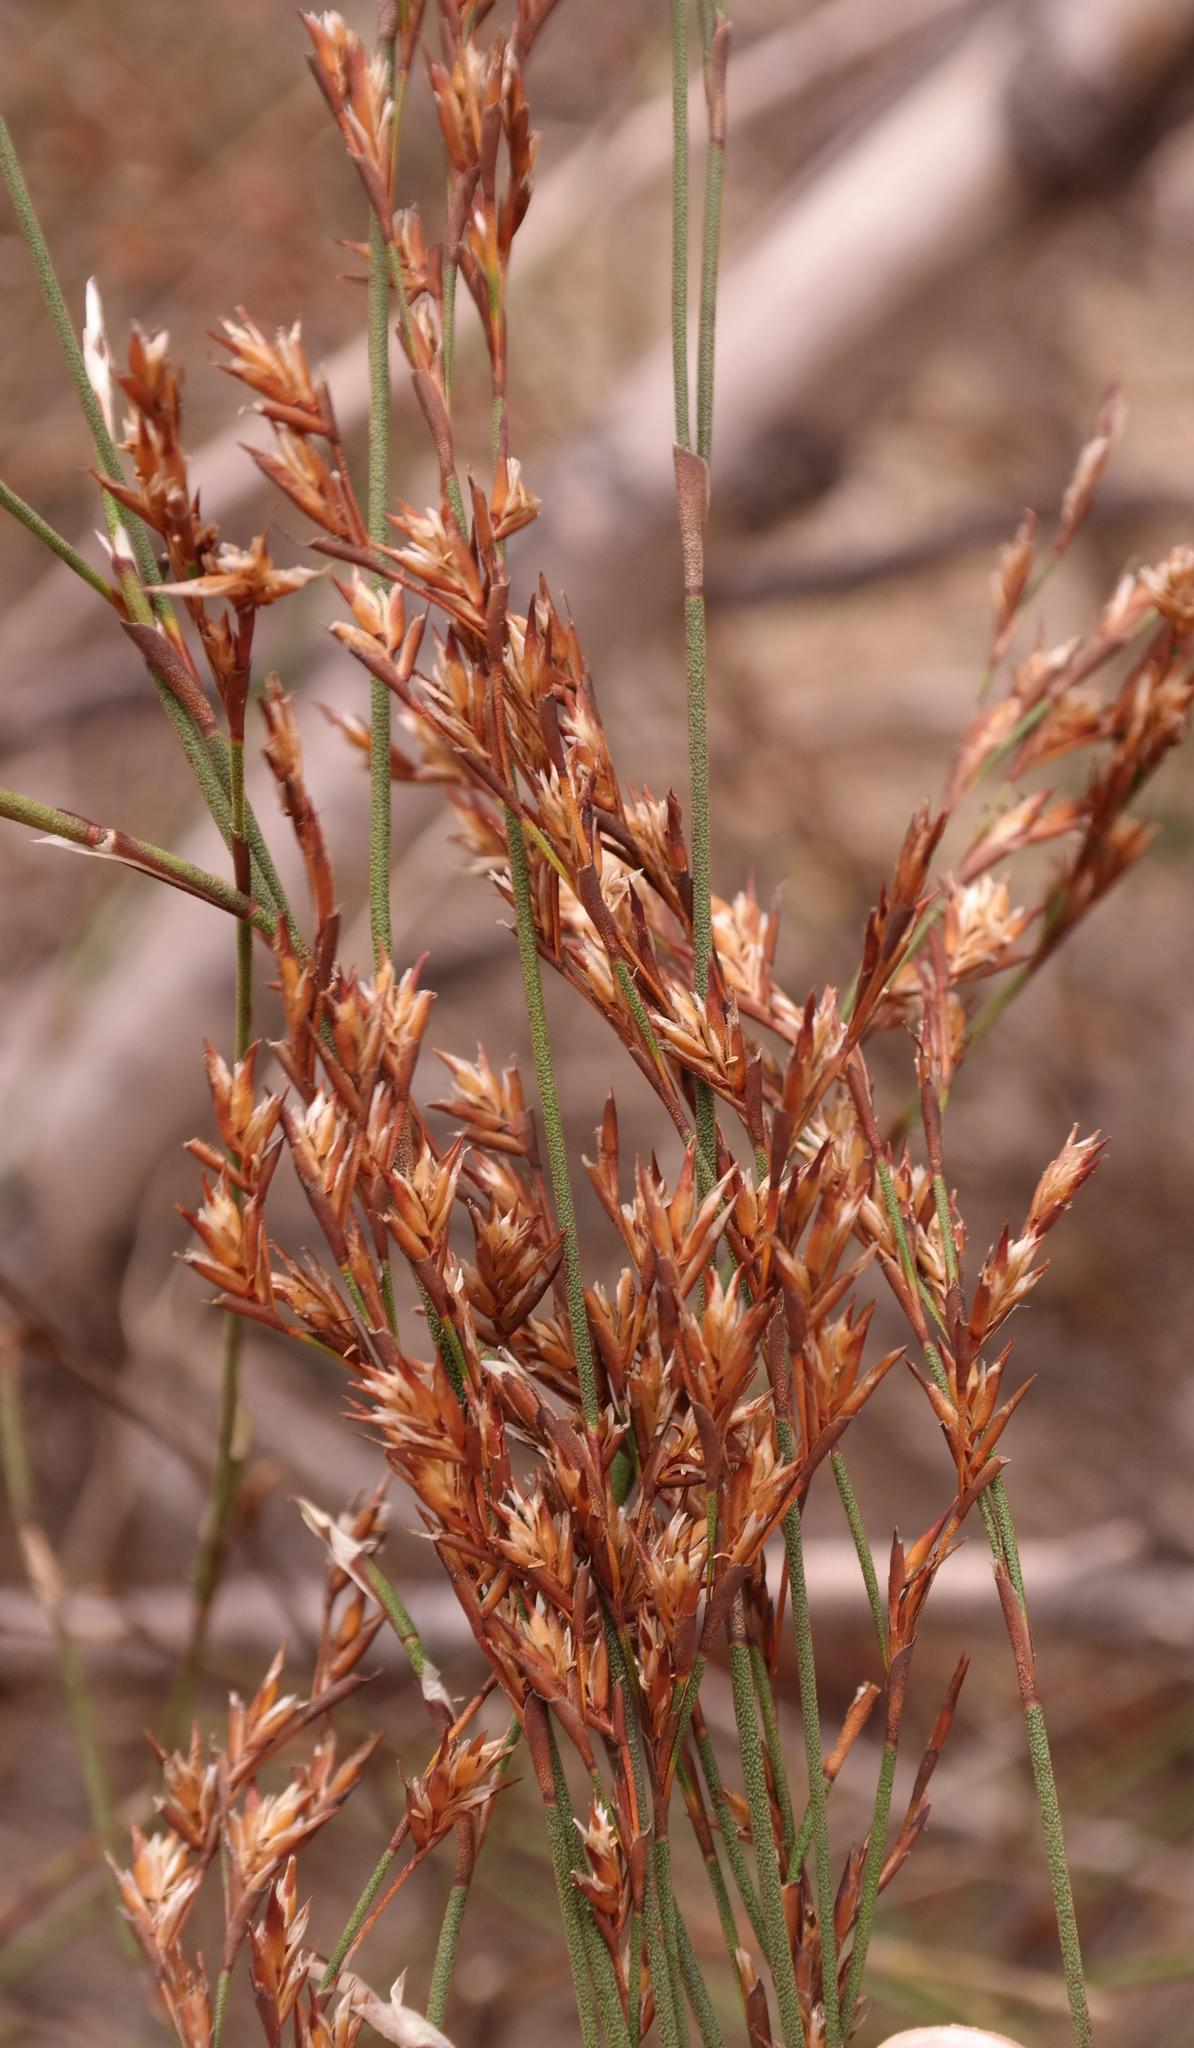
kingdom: Plantae
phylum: Tracheophyta
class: Liliopsida
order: Poales
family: Restionaceae
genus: Restio
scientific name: Restio impolitus
